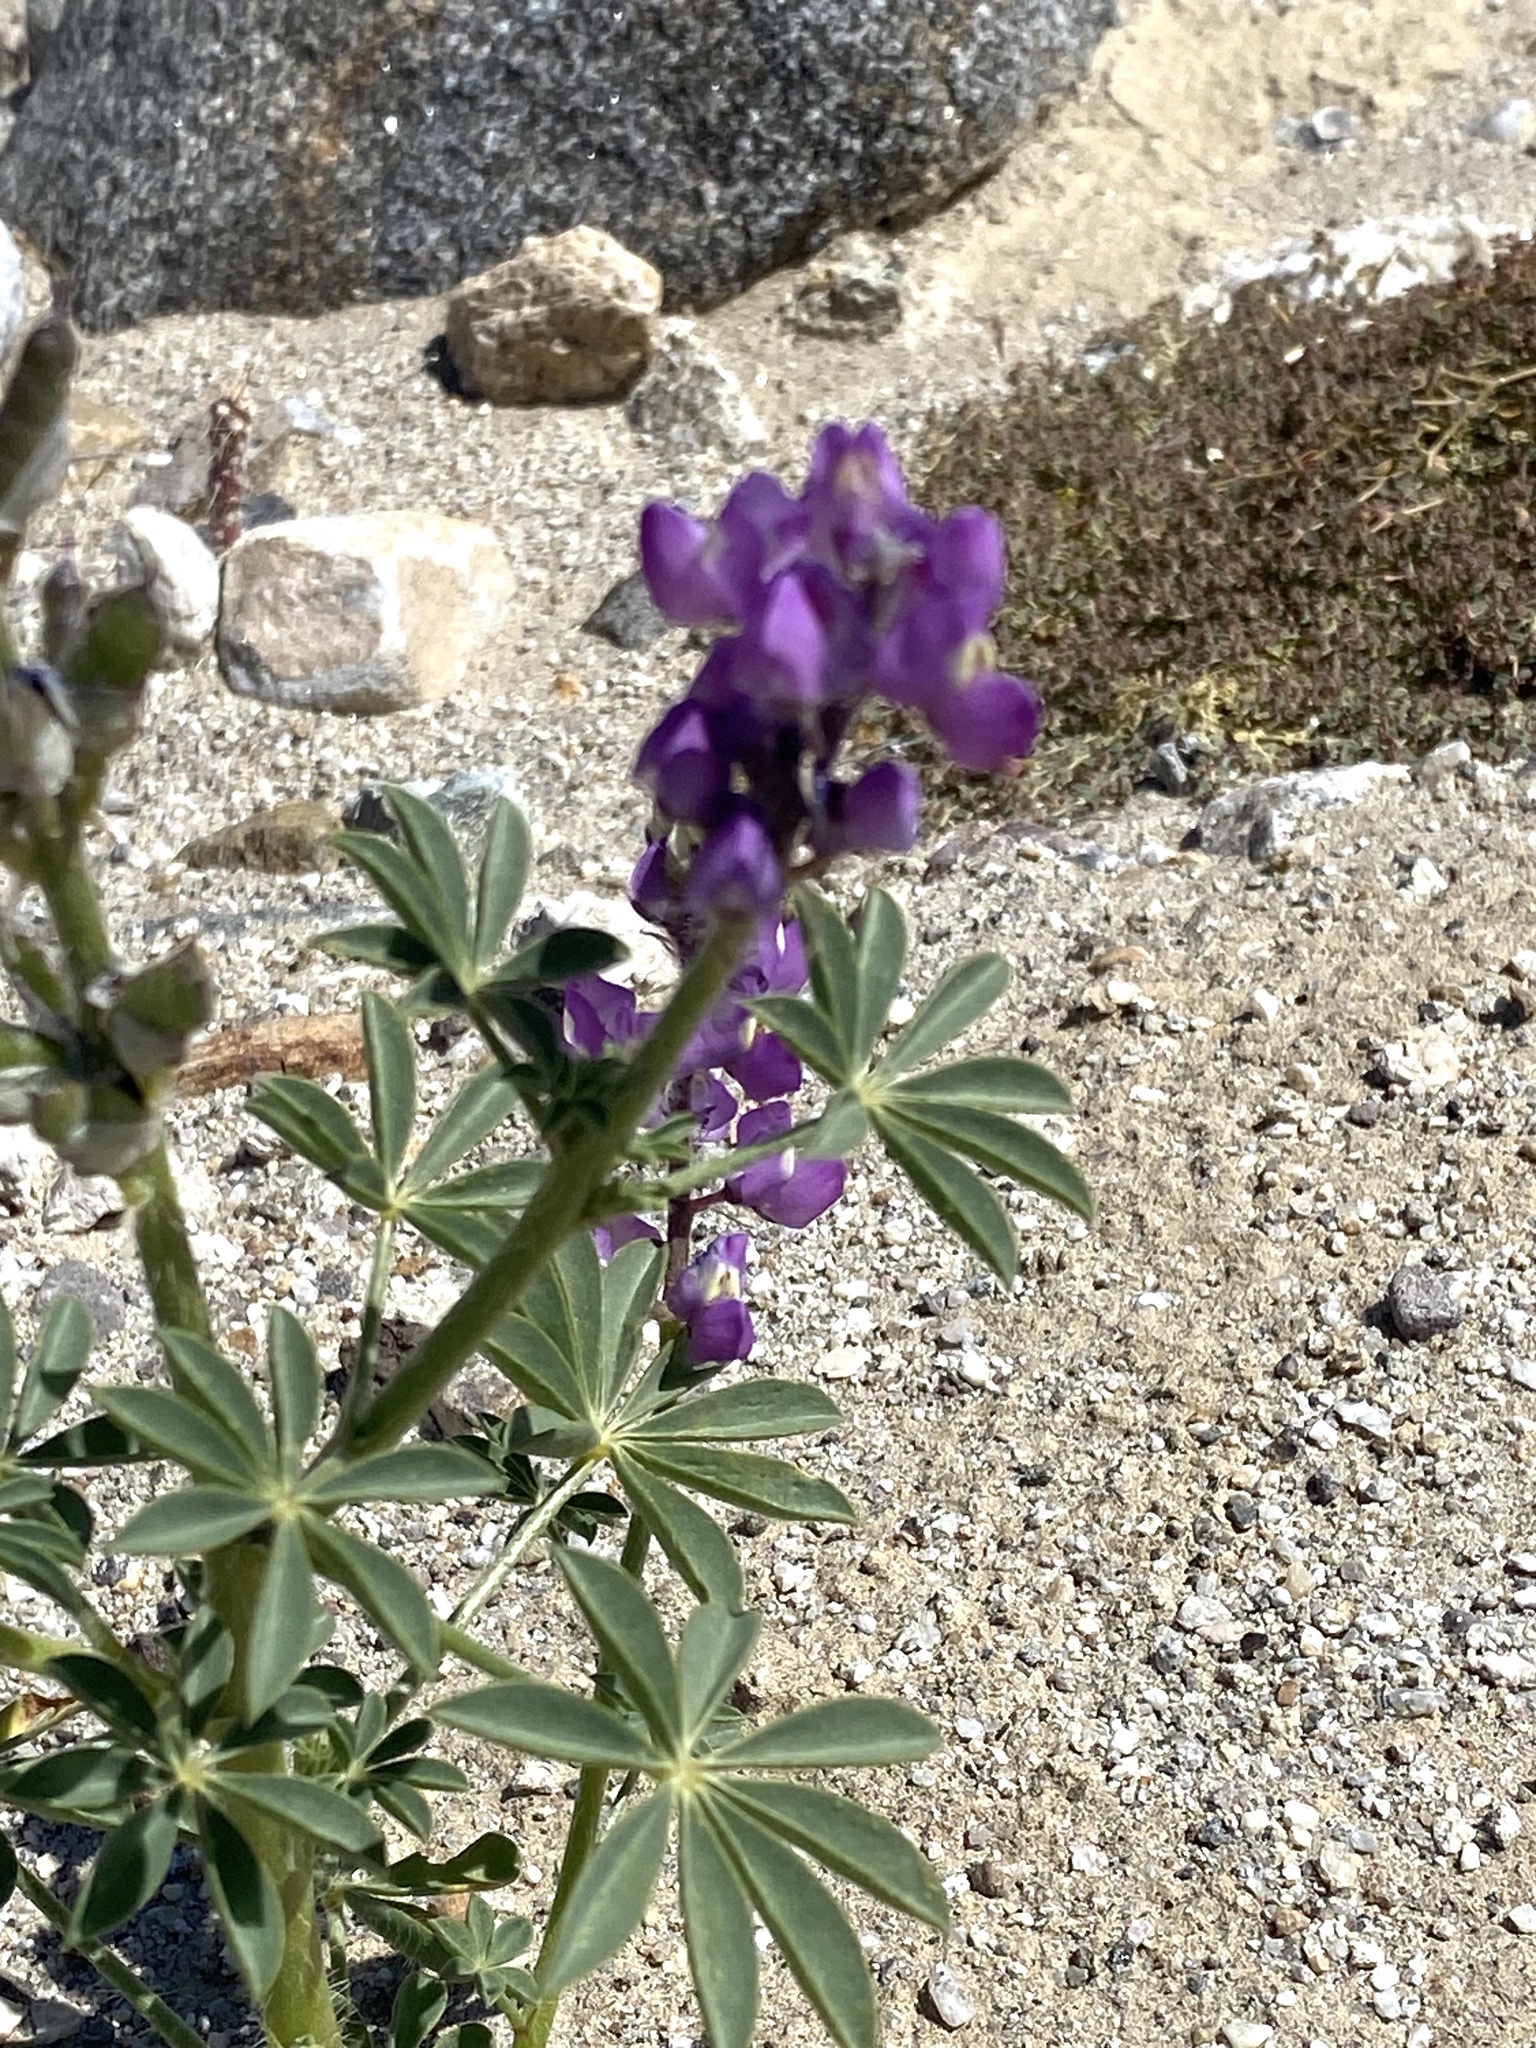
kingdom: Plantae
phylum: Tracheophyta
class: Magnoliopsida
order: Fabales
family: Fabaceae
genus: Lupinus
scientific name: Lupinus arizonicus
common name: Arizona lupine
